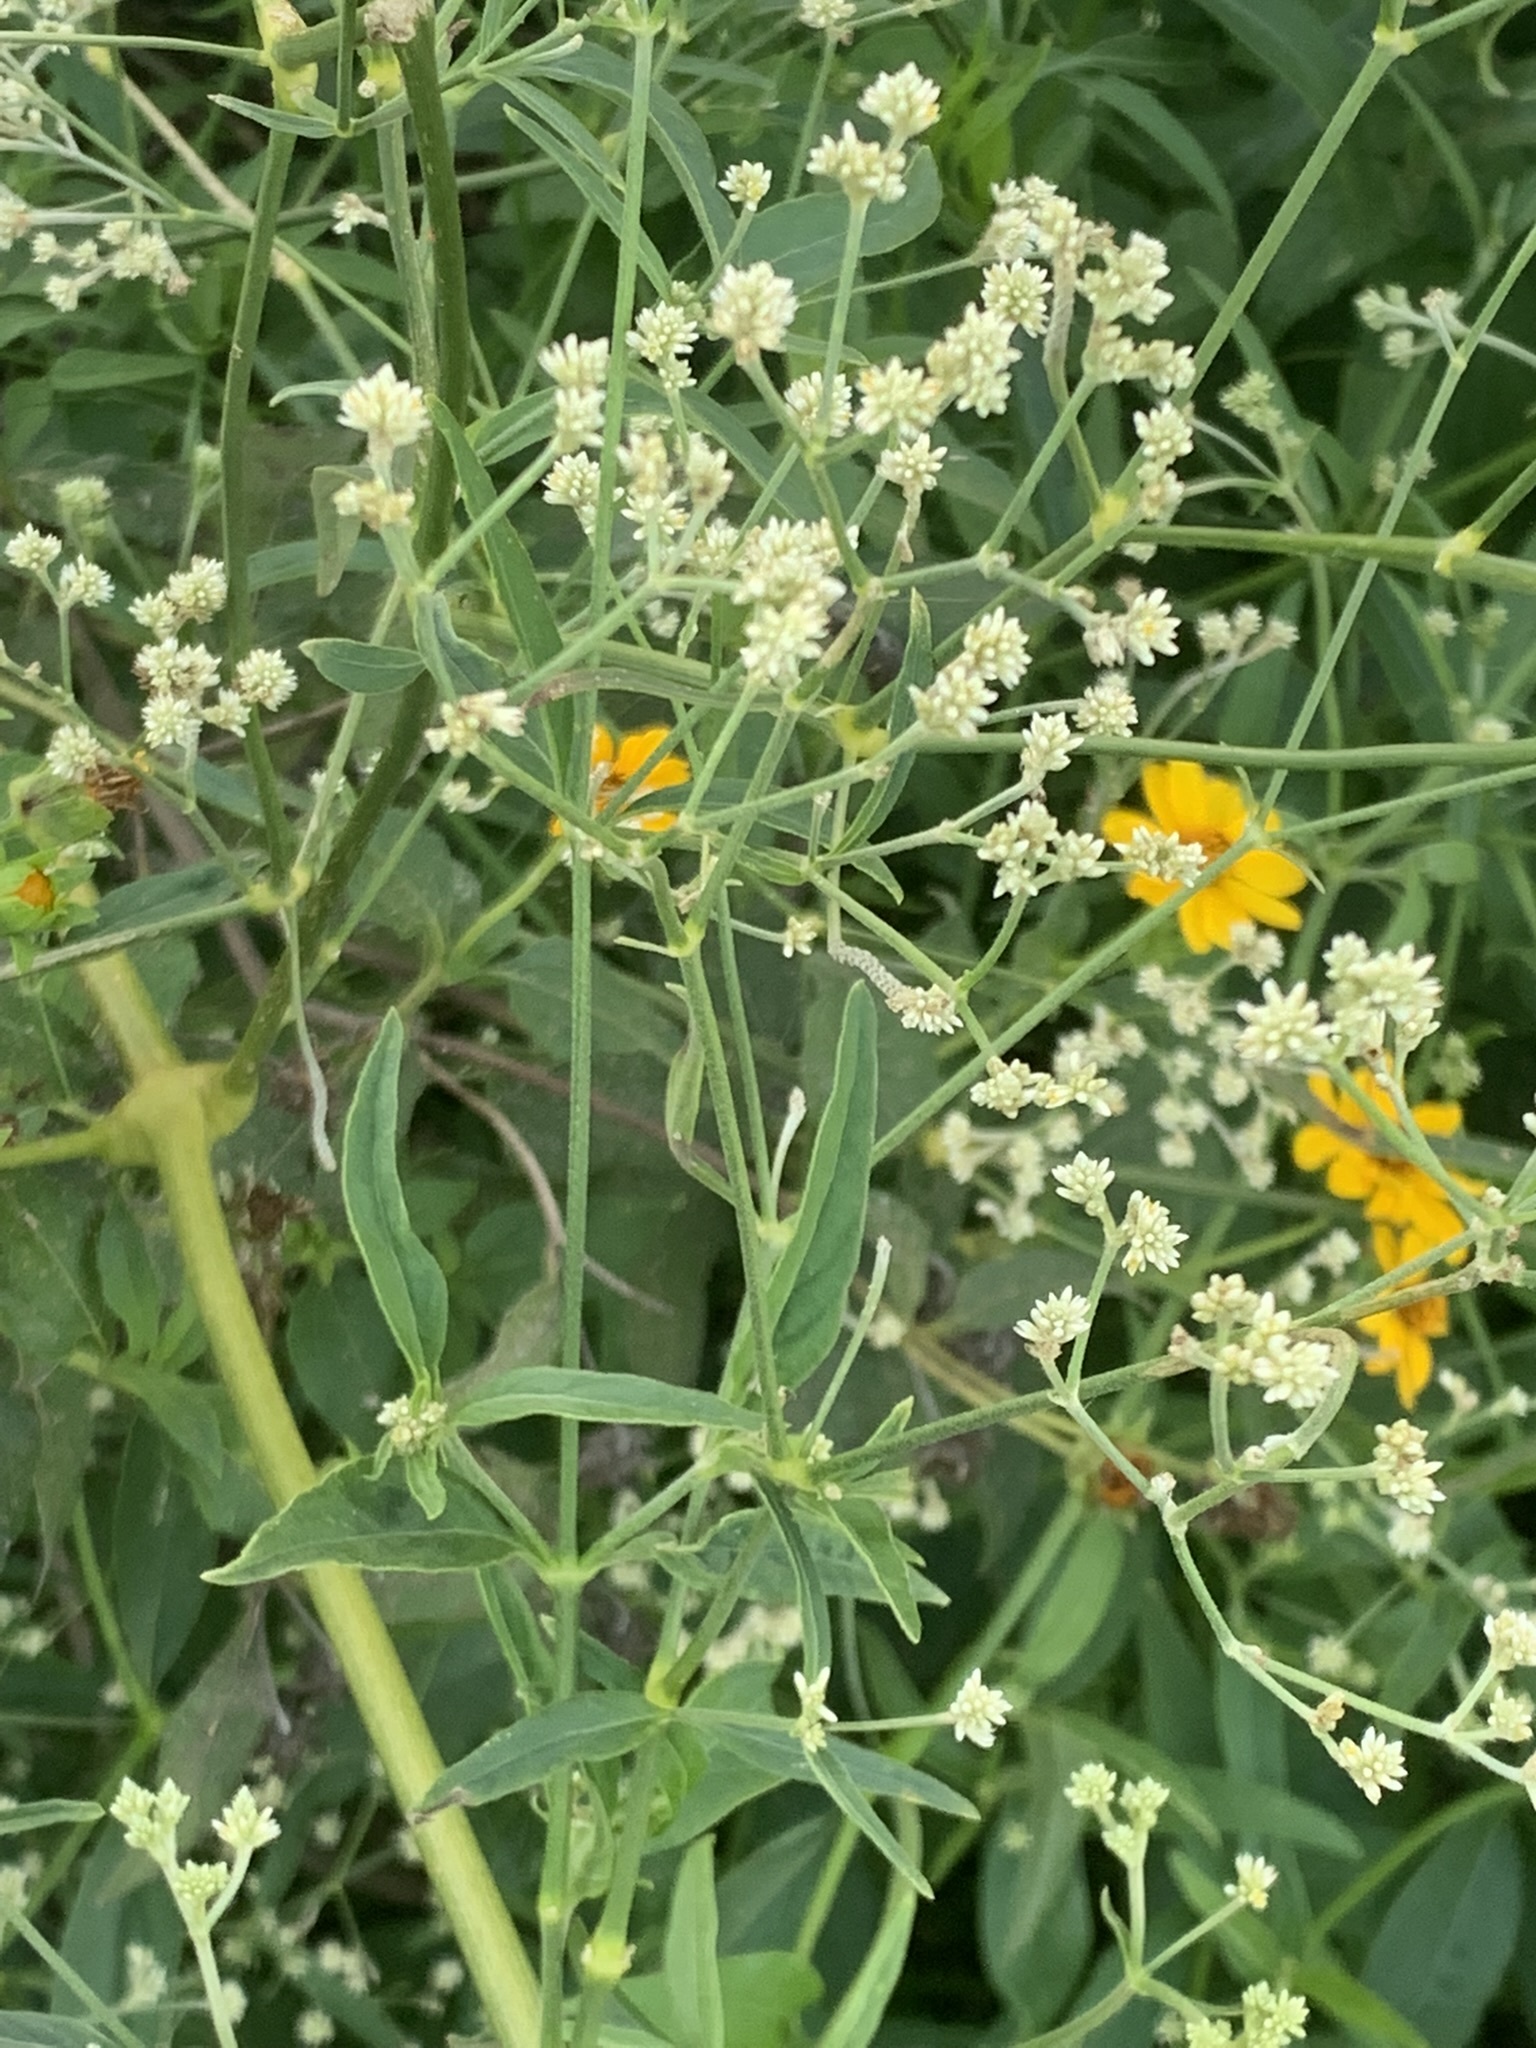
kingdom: Plantae
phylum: Tracheophyta
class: Magnoliopsida
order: Caryophyllales
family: Amaranthaceae
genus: Pfaffia
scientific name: Pfaffia glomerata
